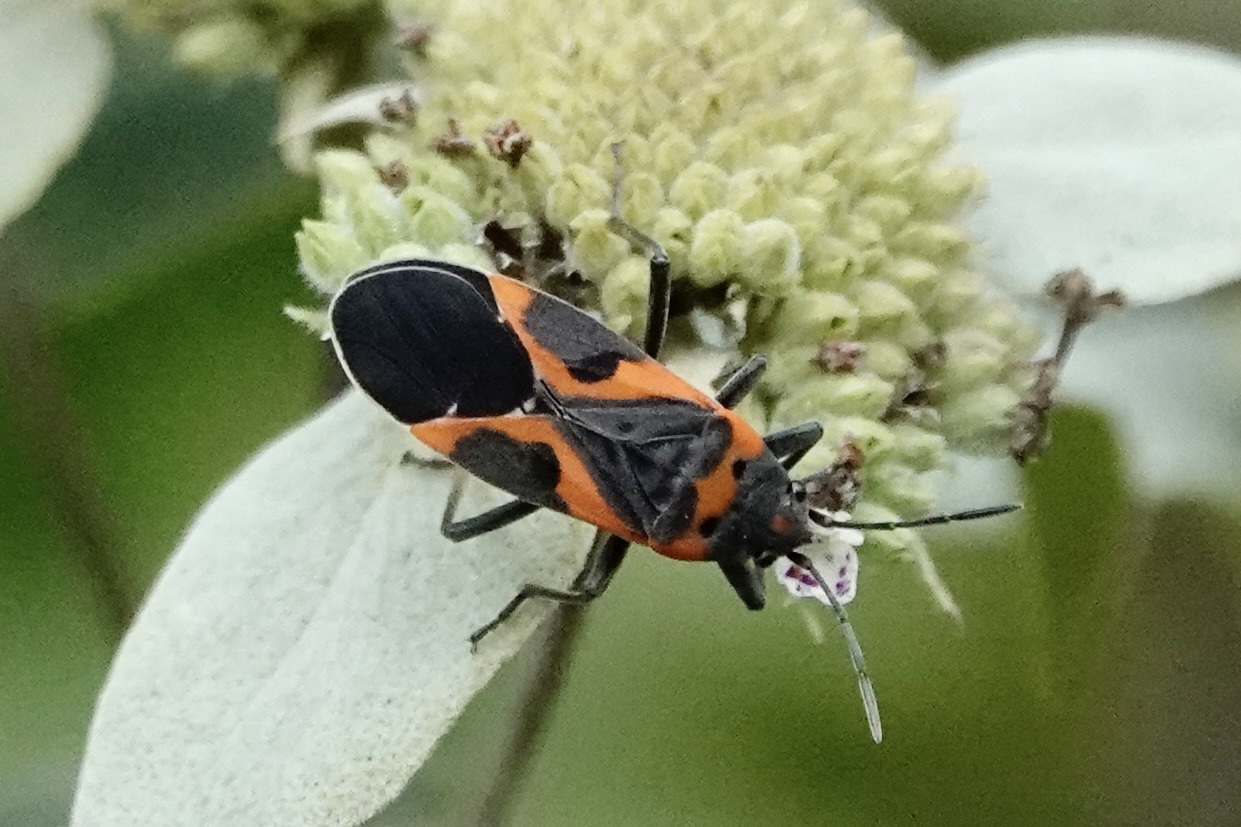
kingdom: Animalia
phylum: Arthropoda
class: Insecta
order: Hemiptera
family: Lygaeidae
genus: Lygaeus
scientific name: Lygaeus kalmii
